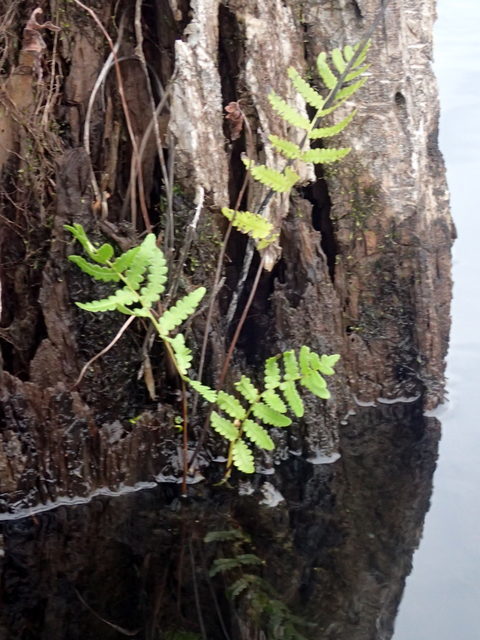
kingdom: Plantae
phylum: Tracheophyta
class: Polypodiopsida
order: Polypodiales
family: Blechnaceae
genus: Anchistea
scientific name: Anchistea virginica
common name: Virginia chain fern
